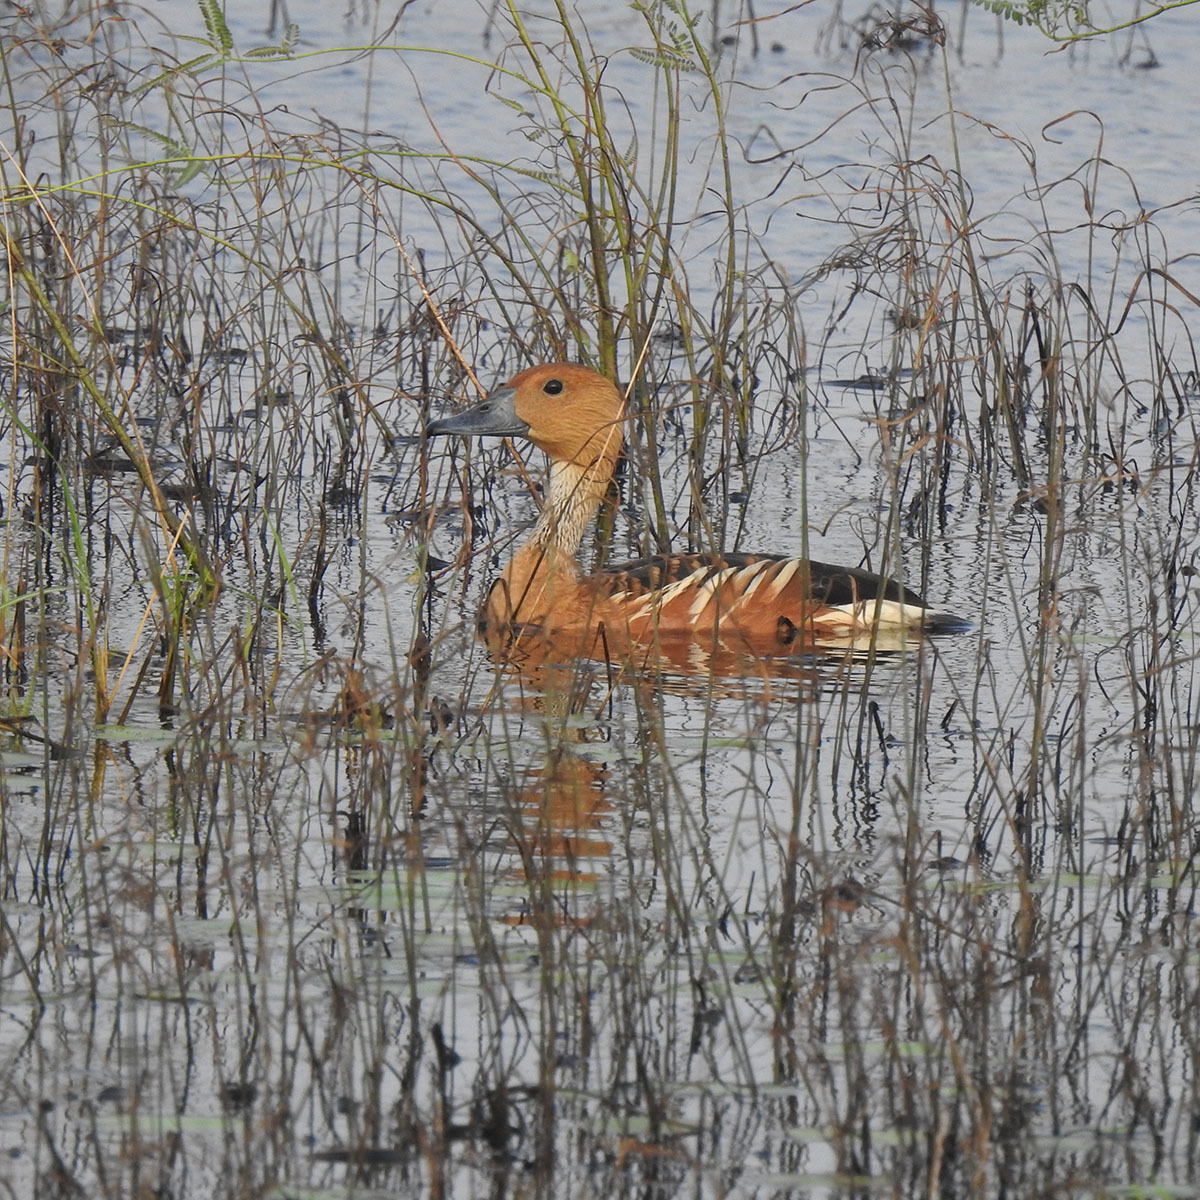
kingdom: Animalia
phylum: Chordata
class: Aves
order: Anseriformes
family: Anatidae
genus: Dendrocygna
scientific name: Dendrocygna bicolor
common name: Fulvous whistling duck
